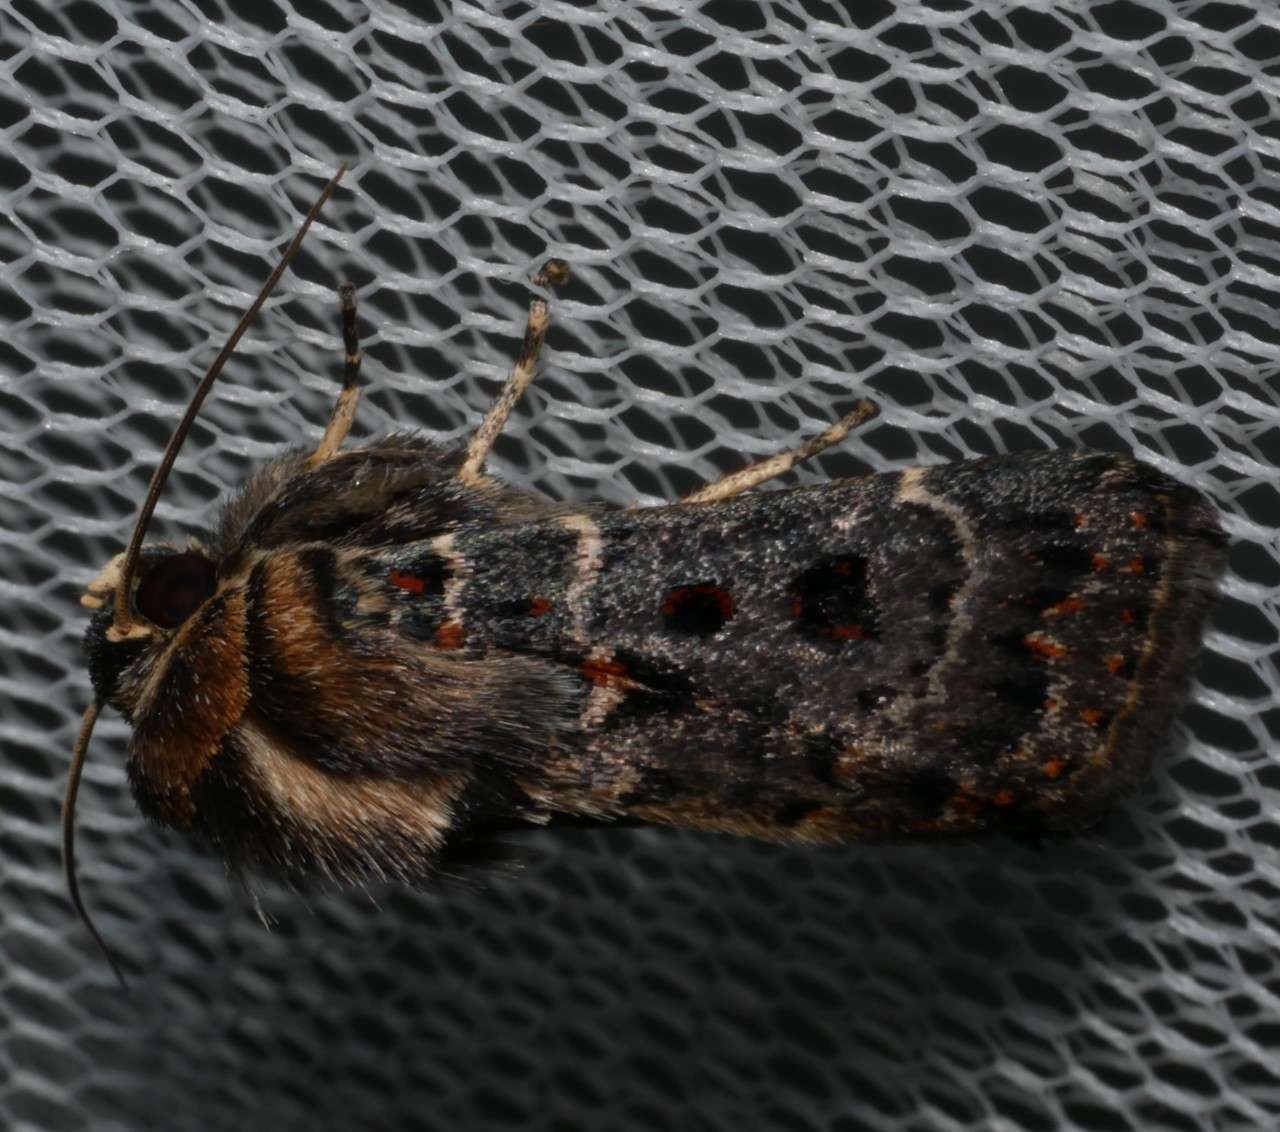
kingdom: Animalia
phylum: Arthropoda
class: Insecta
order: Lepidoptera
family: Noctuidae
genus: Proteuxoa
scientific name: Proteuxoa sanguinipuncta
